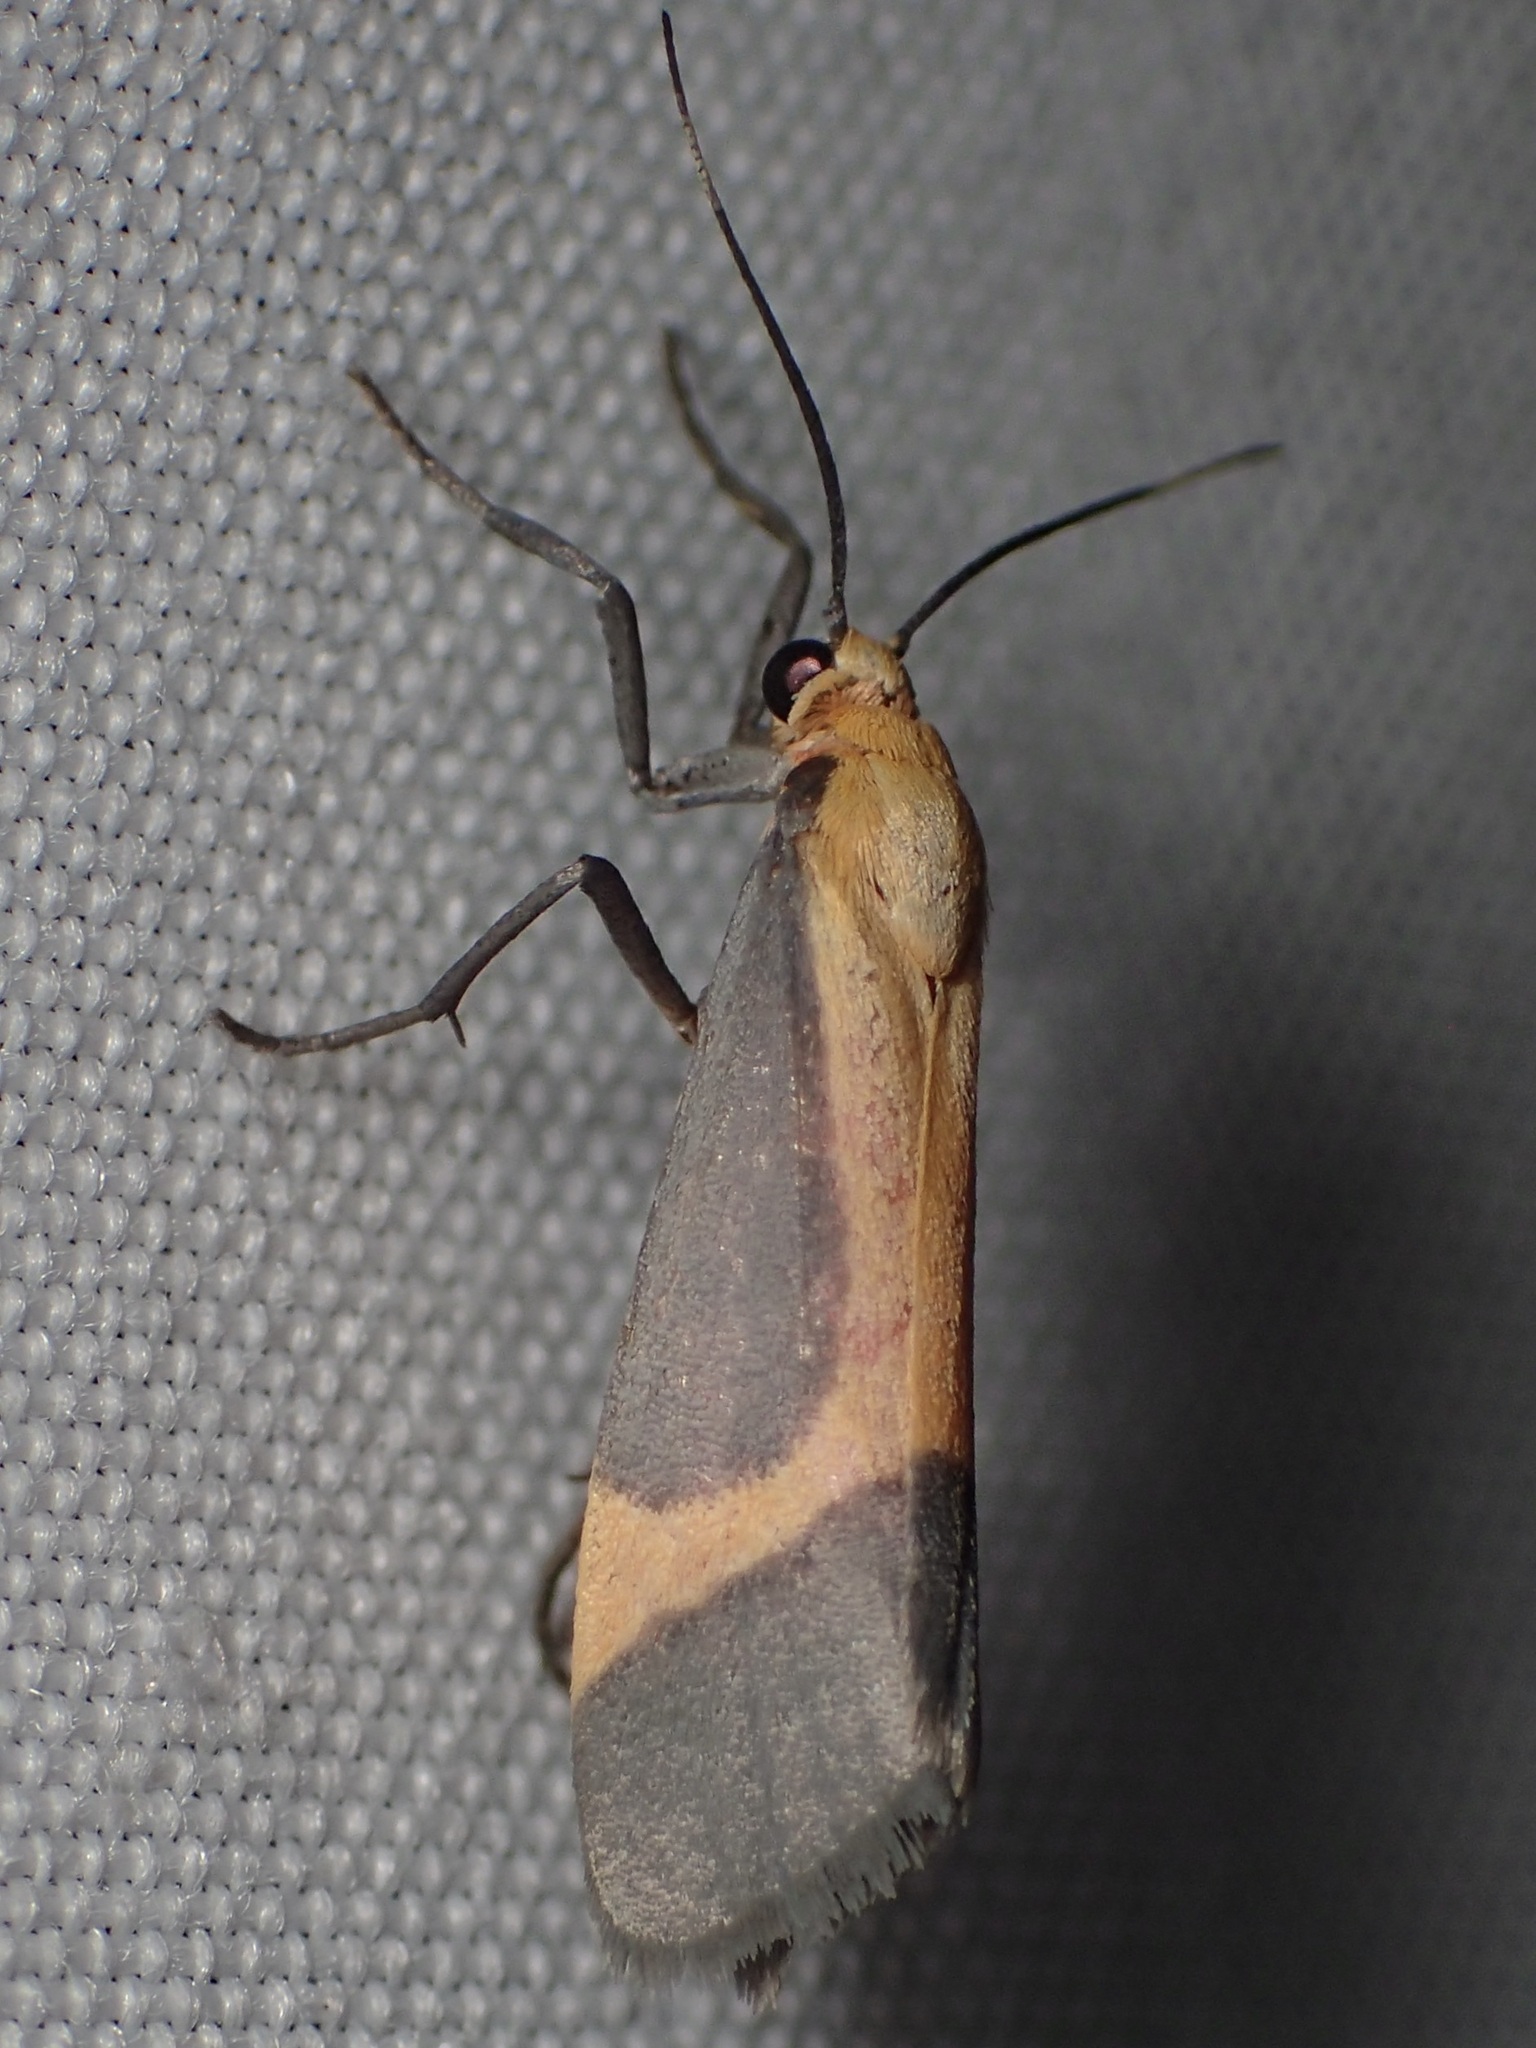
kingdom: Animalia
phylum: Arthropoda
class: Insecta
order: Lepidoptera
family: Erebidae
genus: Cisthene
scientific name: Cisthene angelus
